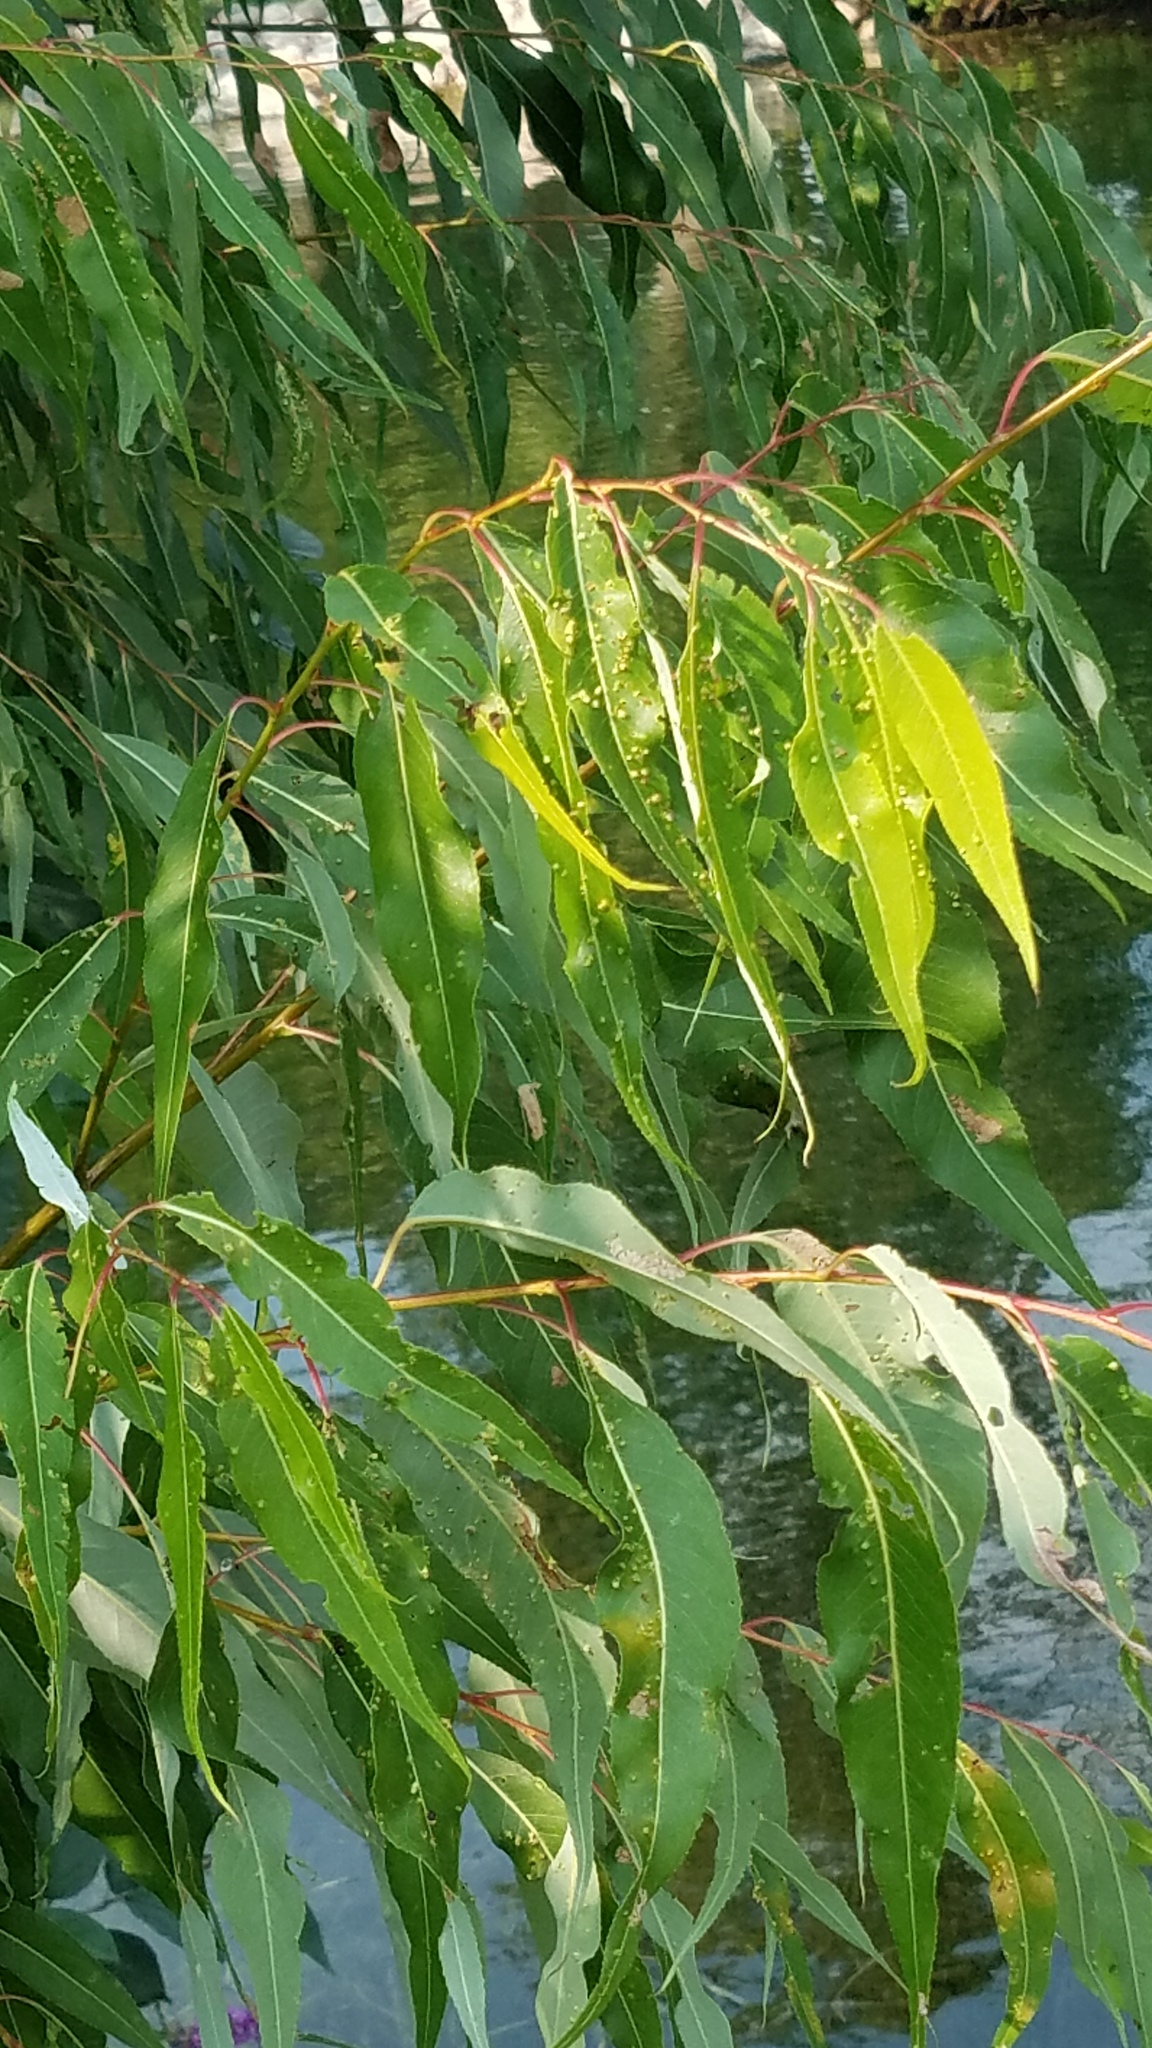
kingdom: Plantae
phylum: Tracheophyta
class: Magnoliopsida
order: Malpighiales
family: Salicaceae
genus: Salix
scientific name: Salix amygdaloides
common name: Peach leaf willow
